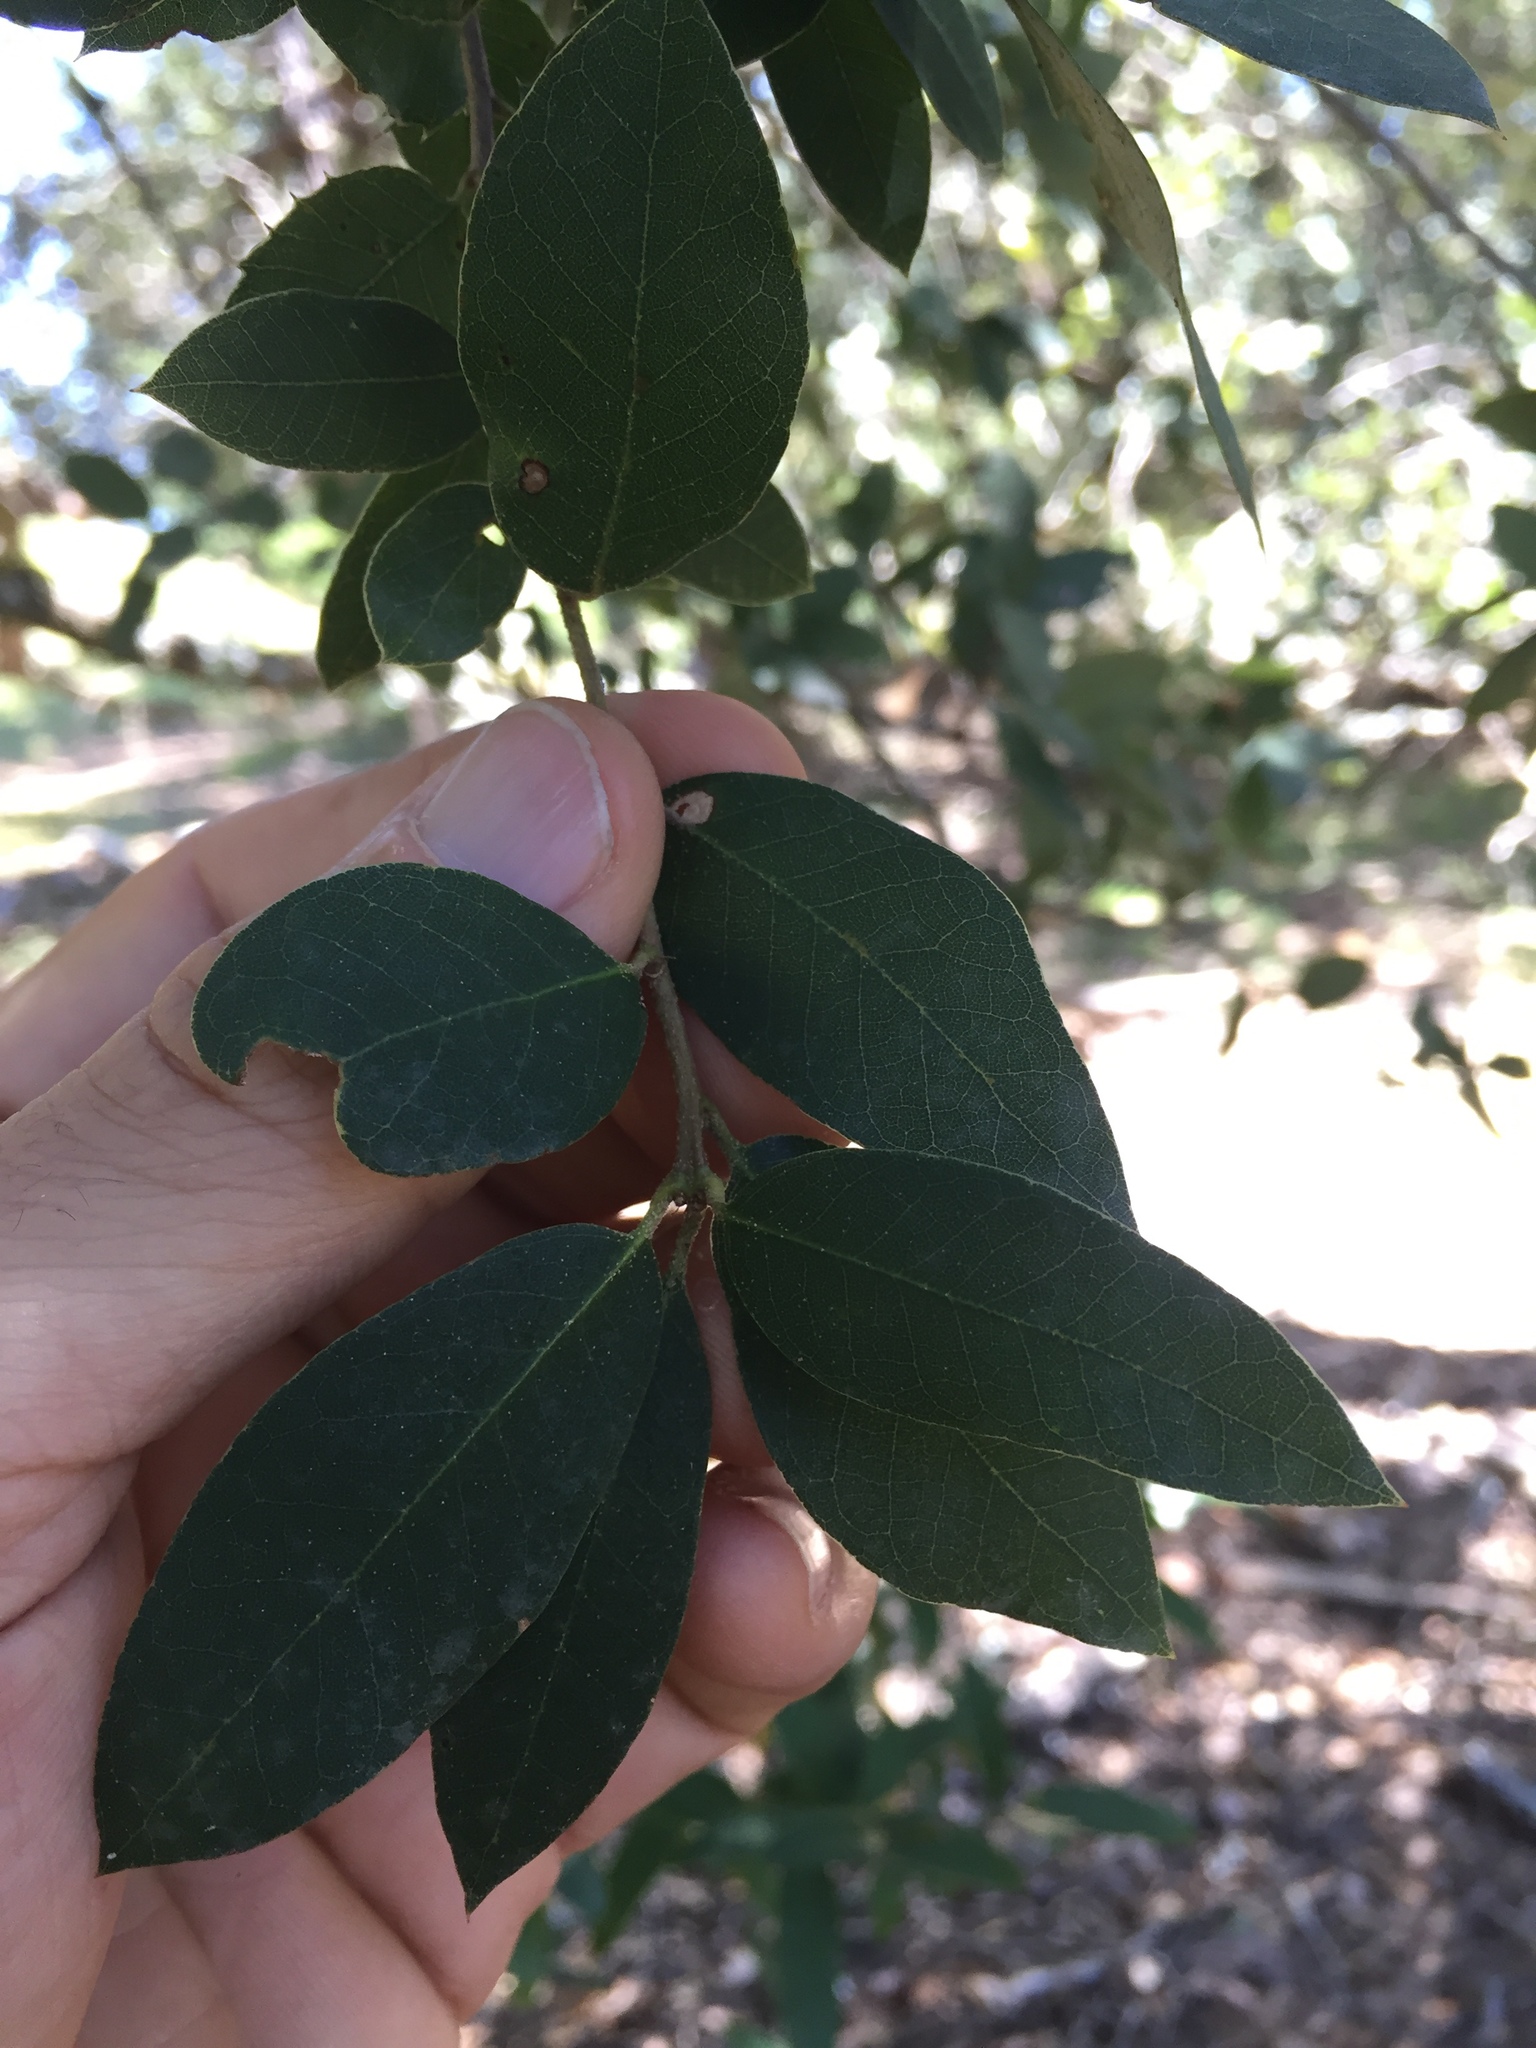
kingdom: Plantae
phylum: Tracheophyta
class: Magnoliopsida
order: Fagales
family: Fagaceae
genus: Quercus
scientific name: Quercus chrysolepis
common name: Canyon live oak
